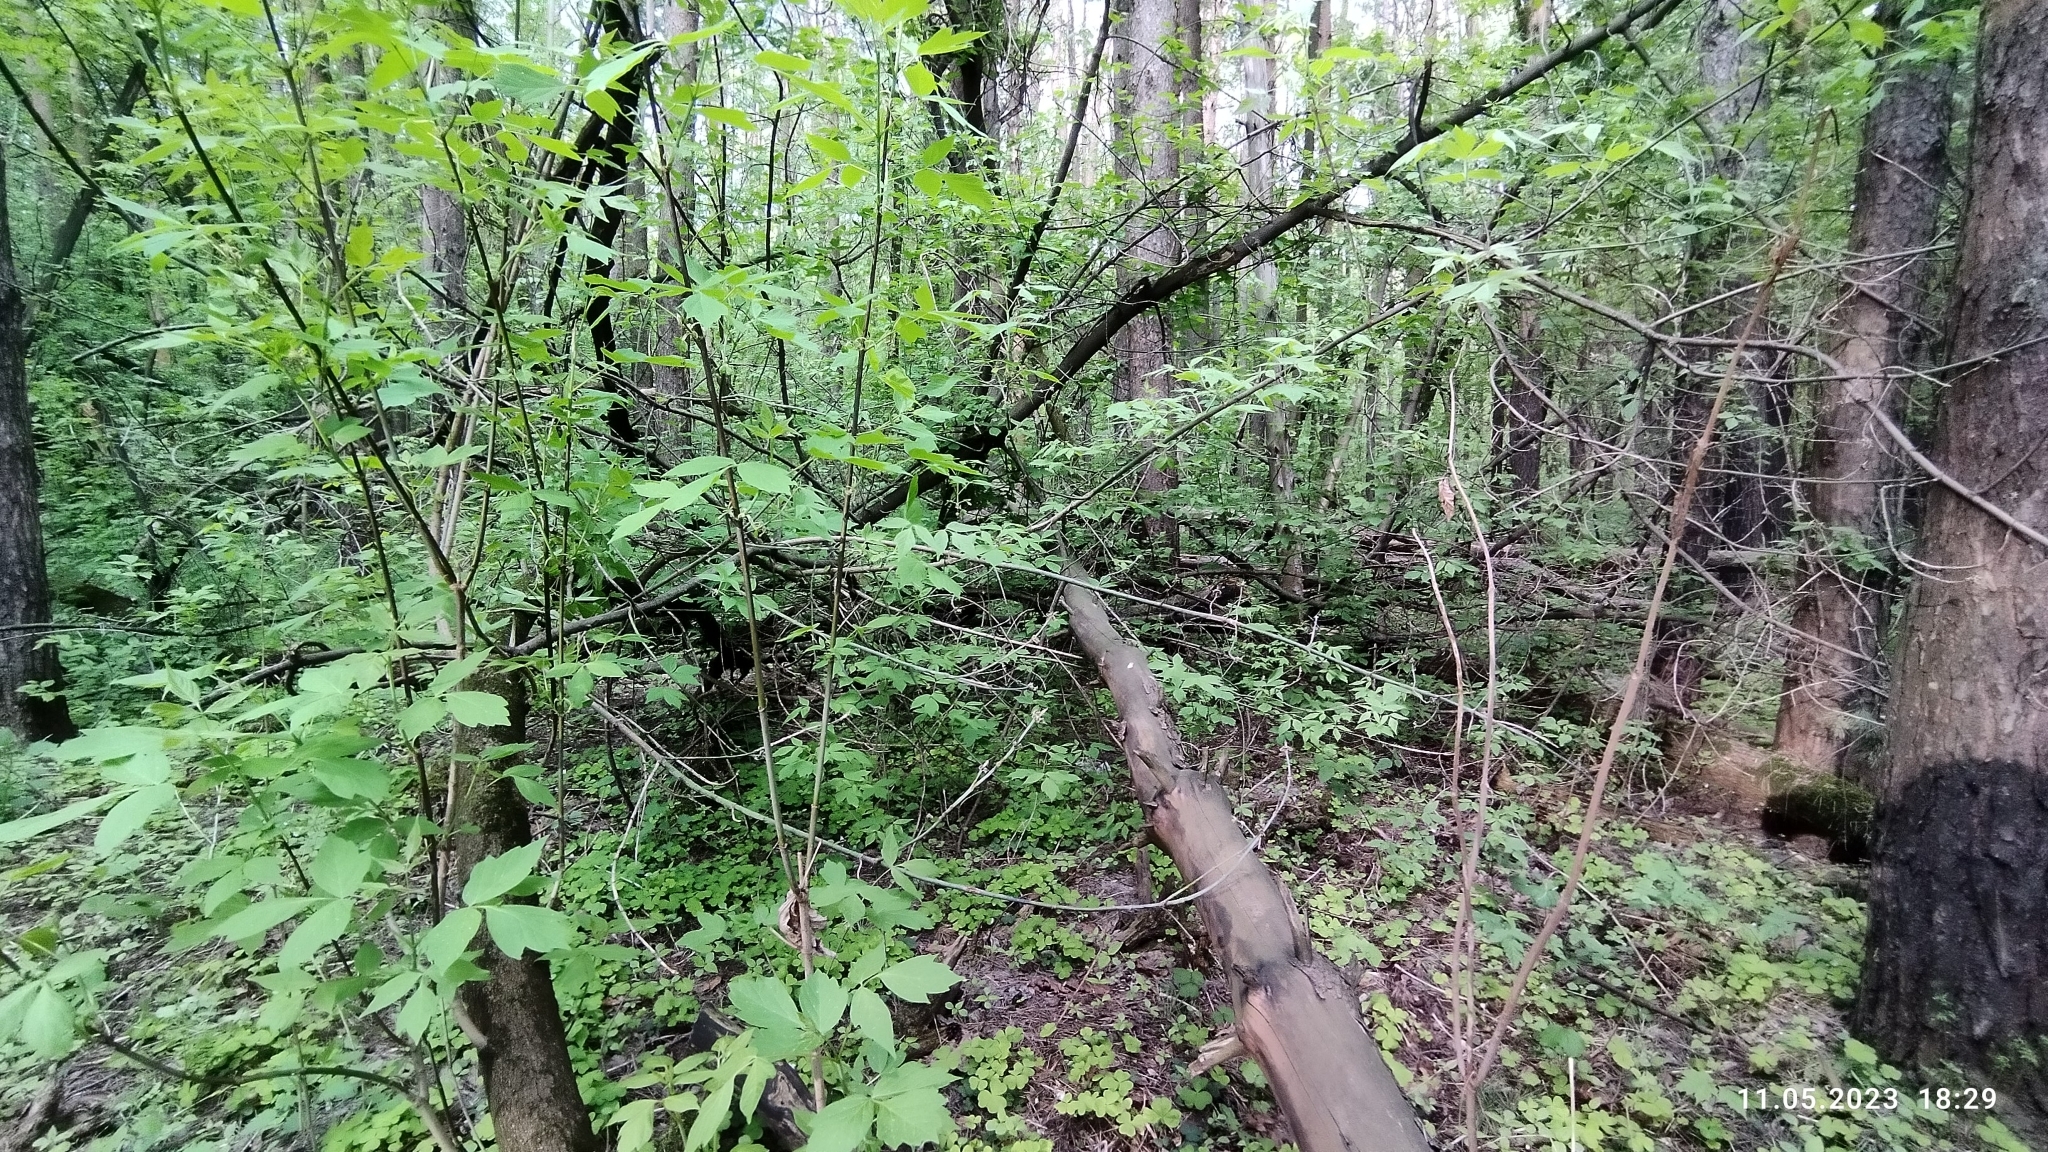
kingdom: Plantae
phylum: Tracheophyta
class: Magnoliopsida
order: Sapindales
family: Sapindaceae
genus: Acer
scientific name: Acer negundo
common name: Ashleaf maple
